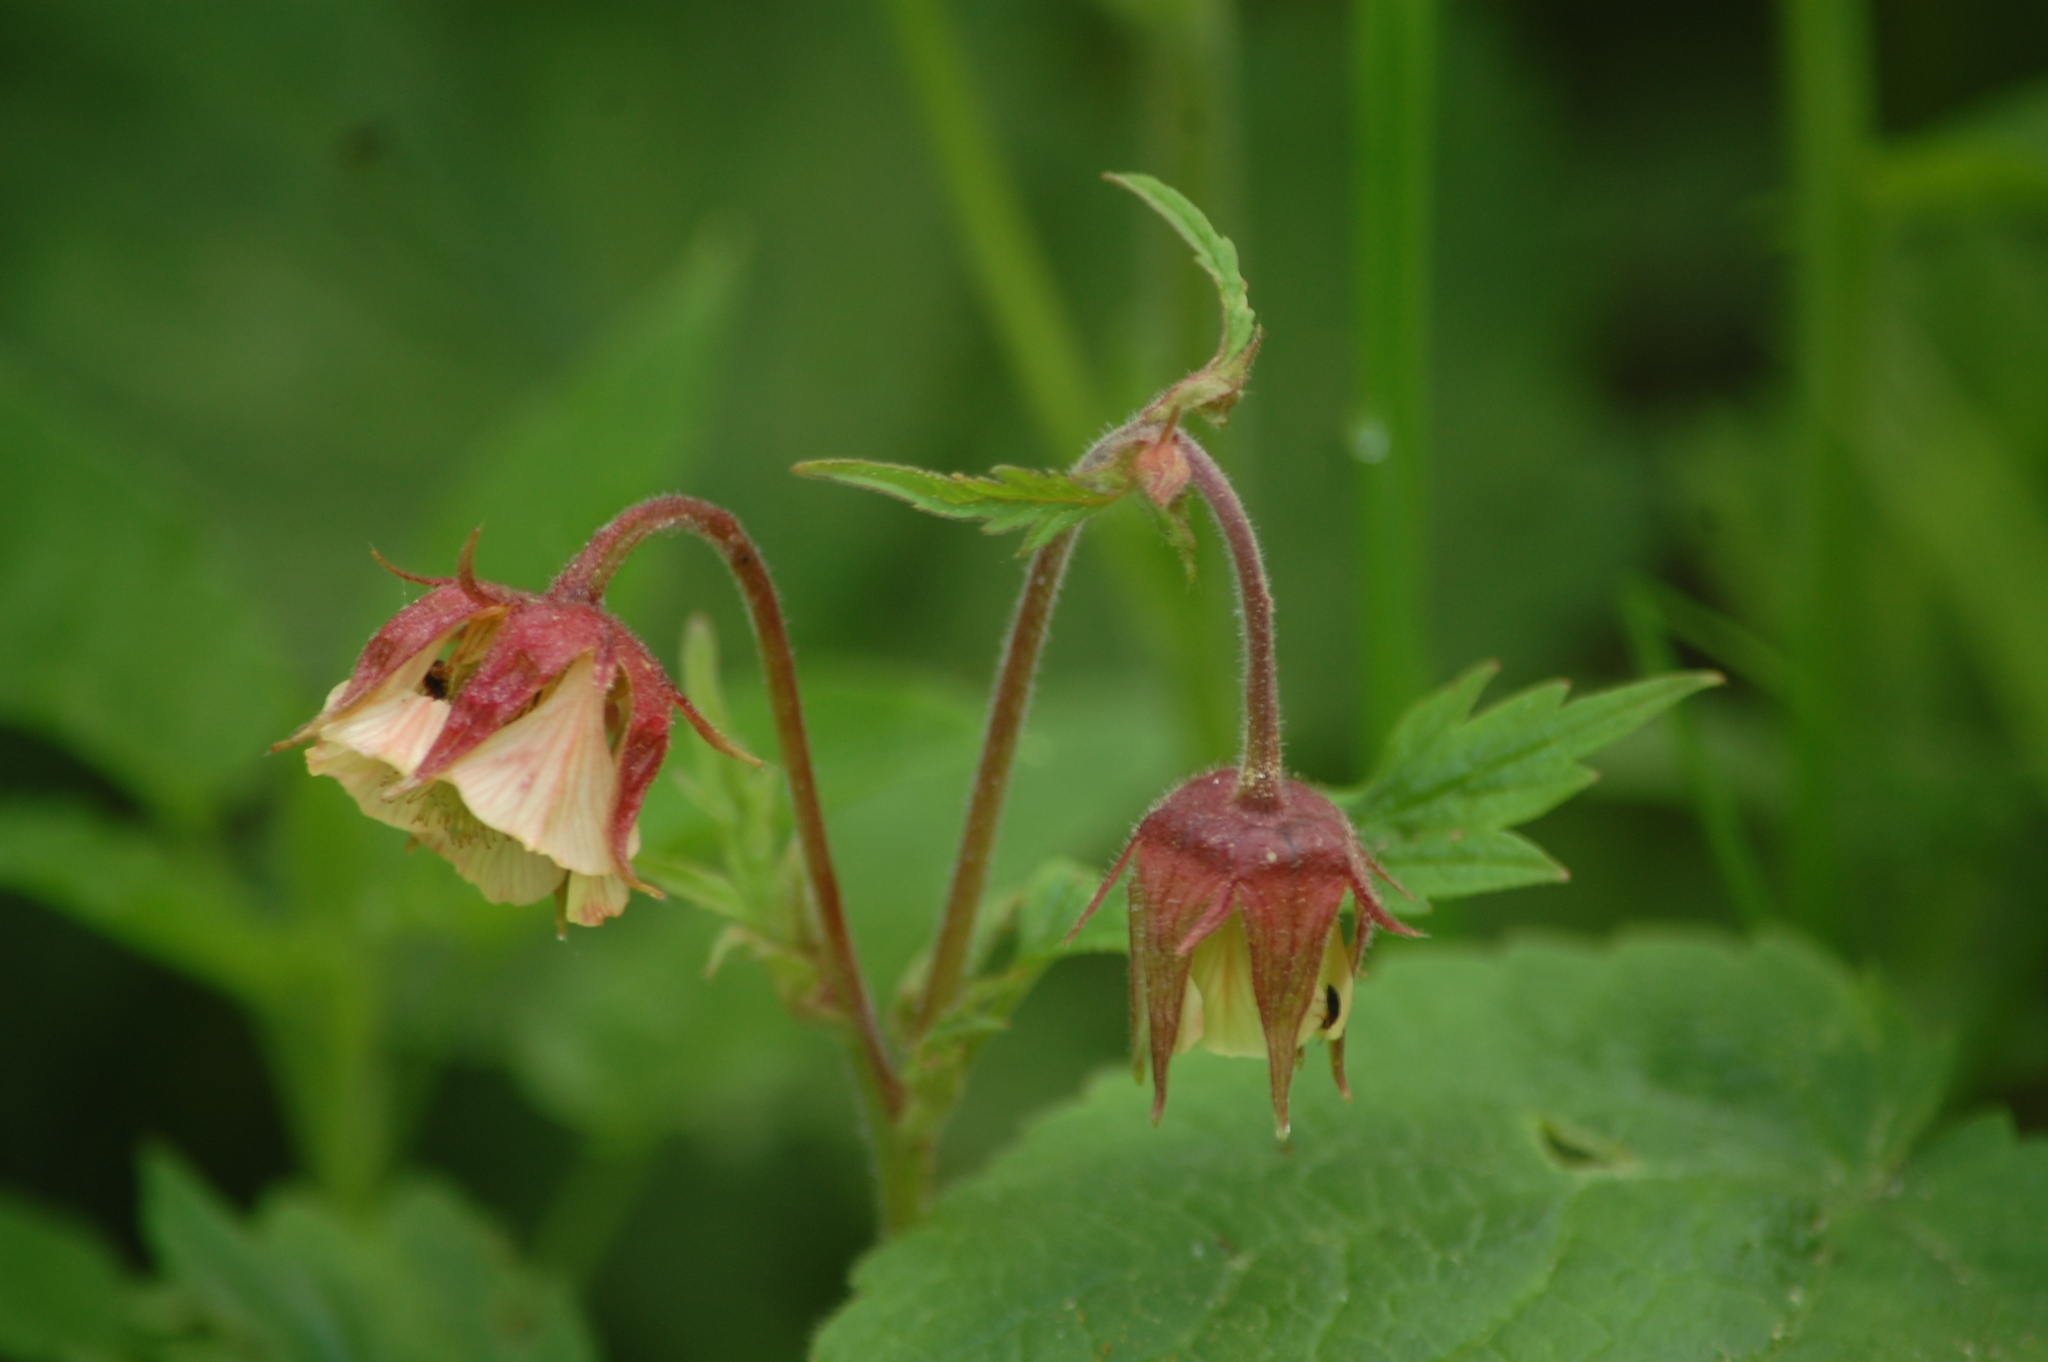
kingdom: Plantae
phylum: Tracheophyta
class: Magnoliopsida
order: Rosales
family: Rosaceae
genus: Geum
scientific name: Geum rivale
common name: Water avens
